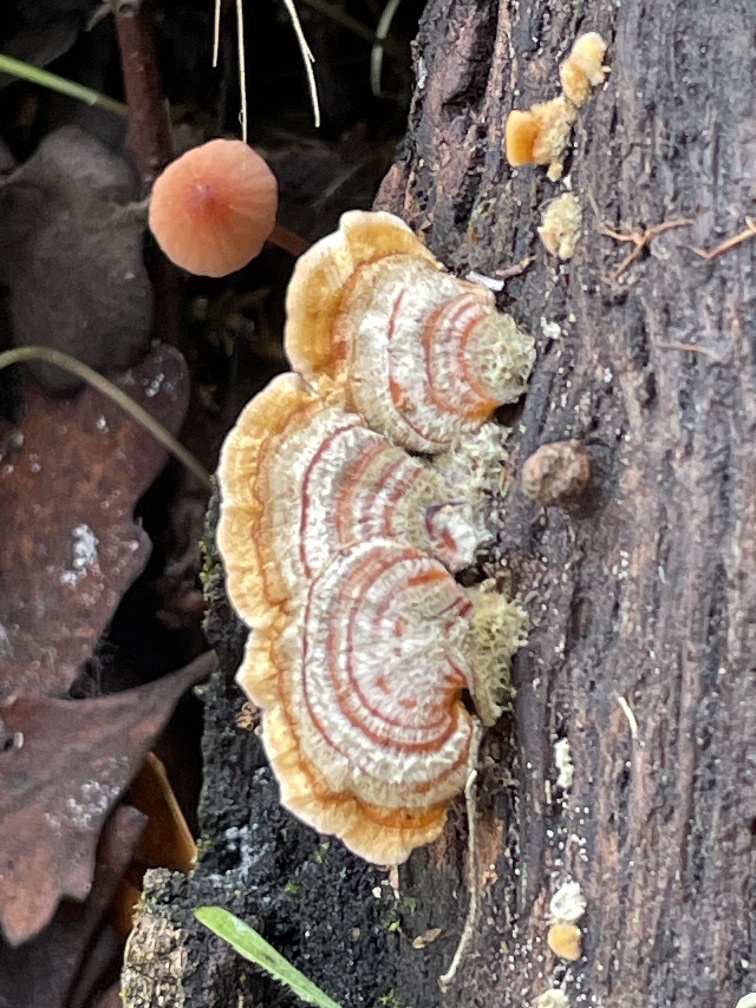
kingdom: Fungi
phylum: Basidiomycota
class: Agaricomycetes
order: Russulales
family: Stereaceae
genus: Stereum
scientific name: Stereum hirsutum
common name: Hairy curtain crust
